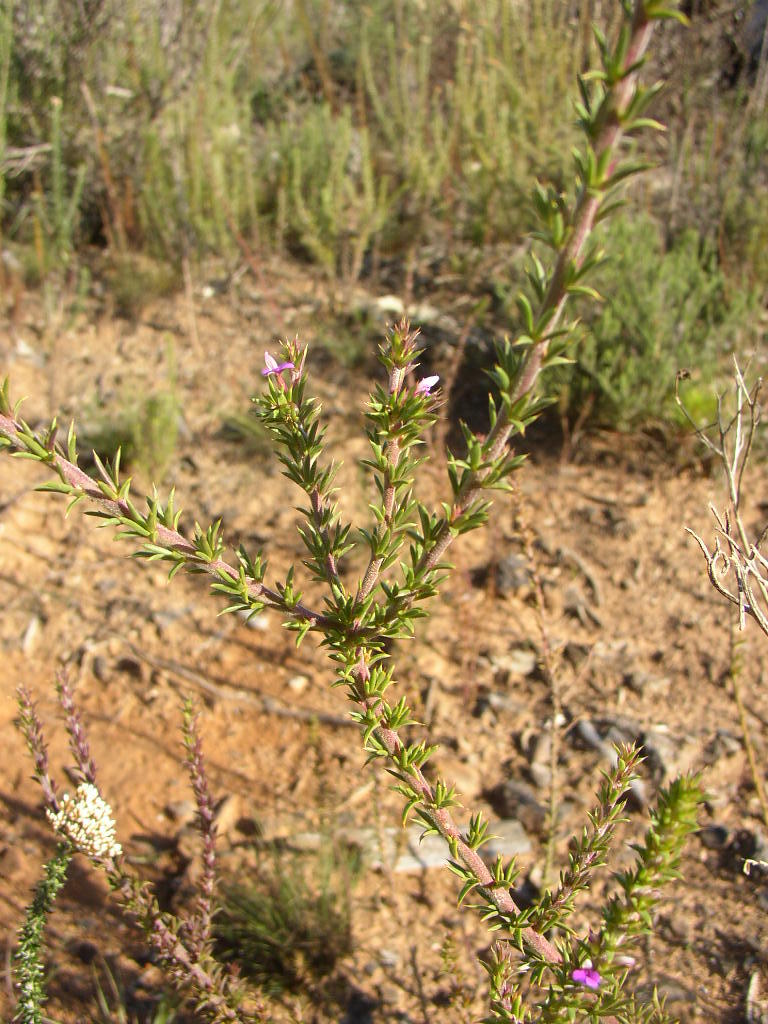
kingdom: Plantae
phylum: Tracheophyta
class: Magnoliopsida
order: Fabales
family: Polygalaceae
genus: Muraltia
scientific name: Muraltia heisteria
